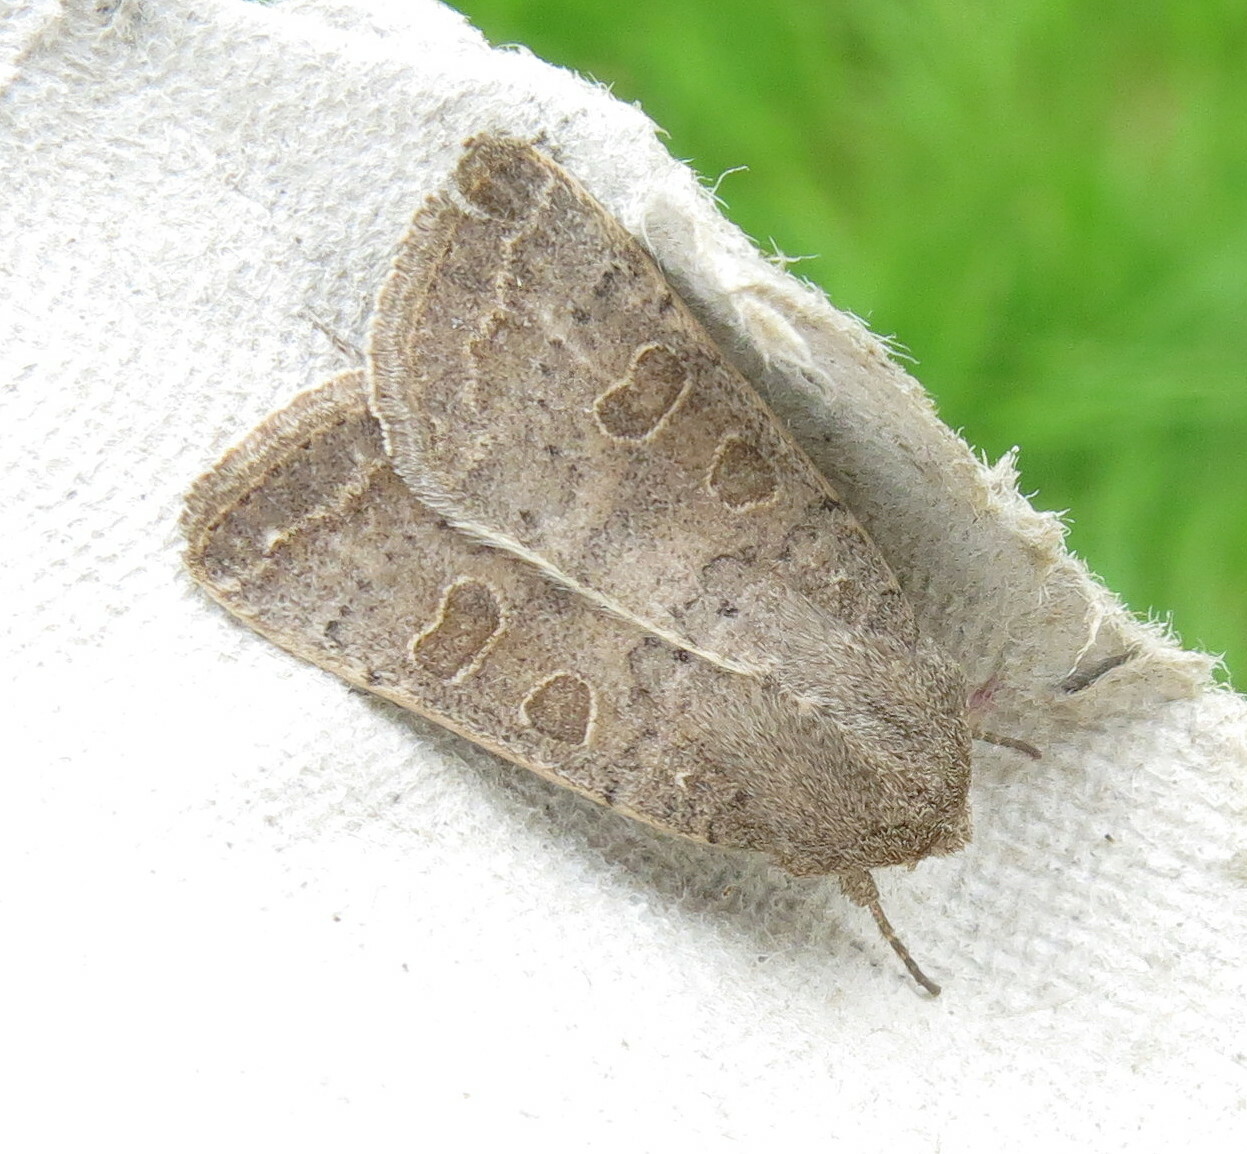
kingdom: Animalia
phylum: Arthropoda
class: Insecta
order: Lepidoptera
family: Noctuidae
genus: Hoplodrina
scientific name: Hoplodrina ambigua
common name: Vine's rustic
